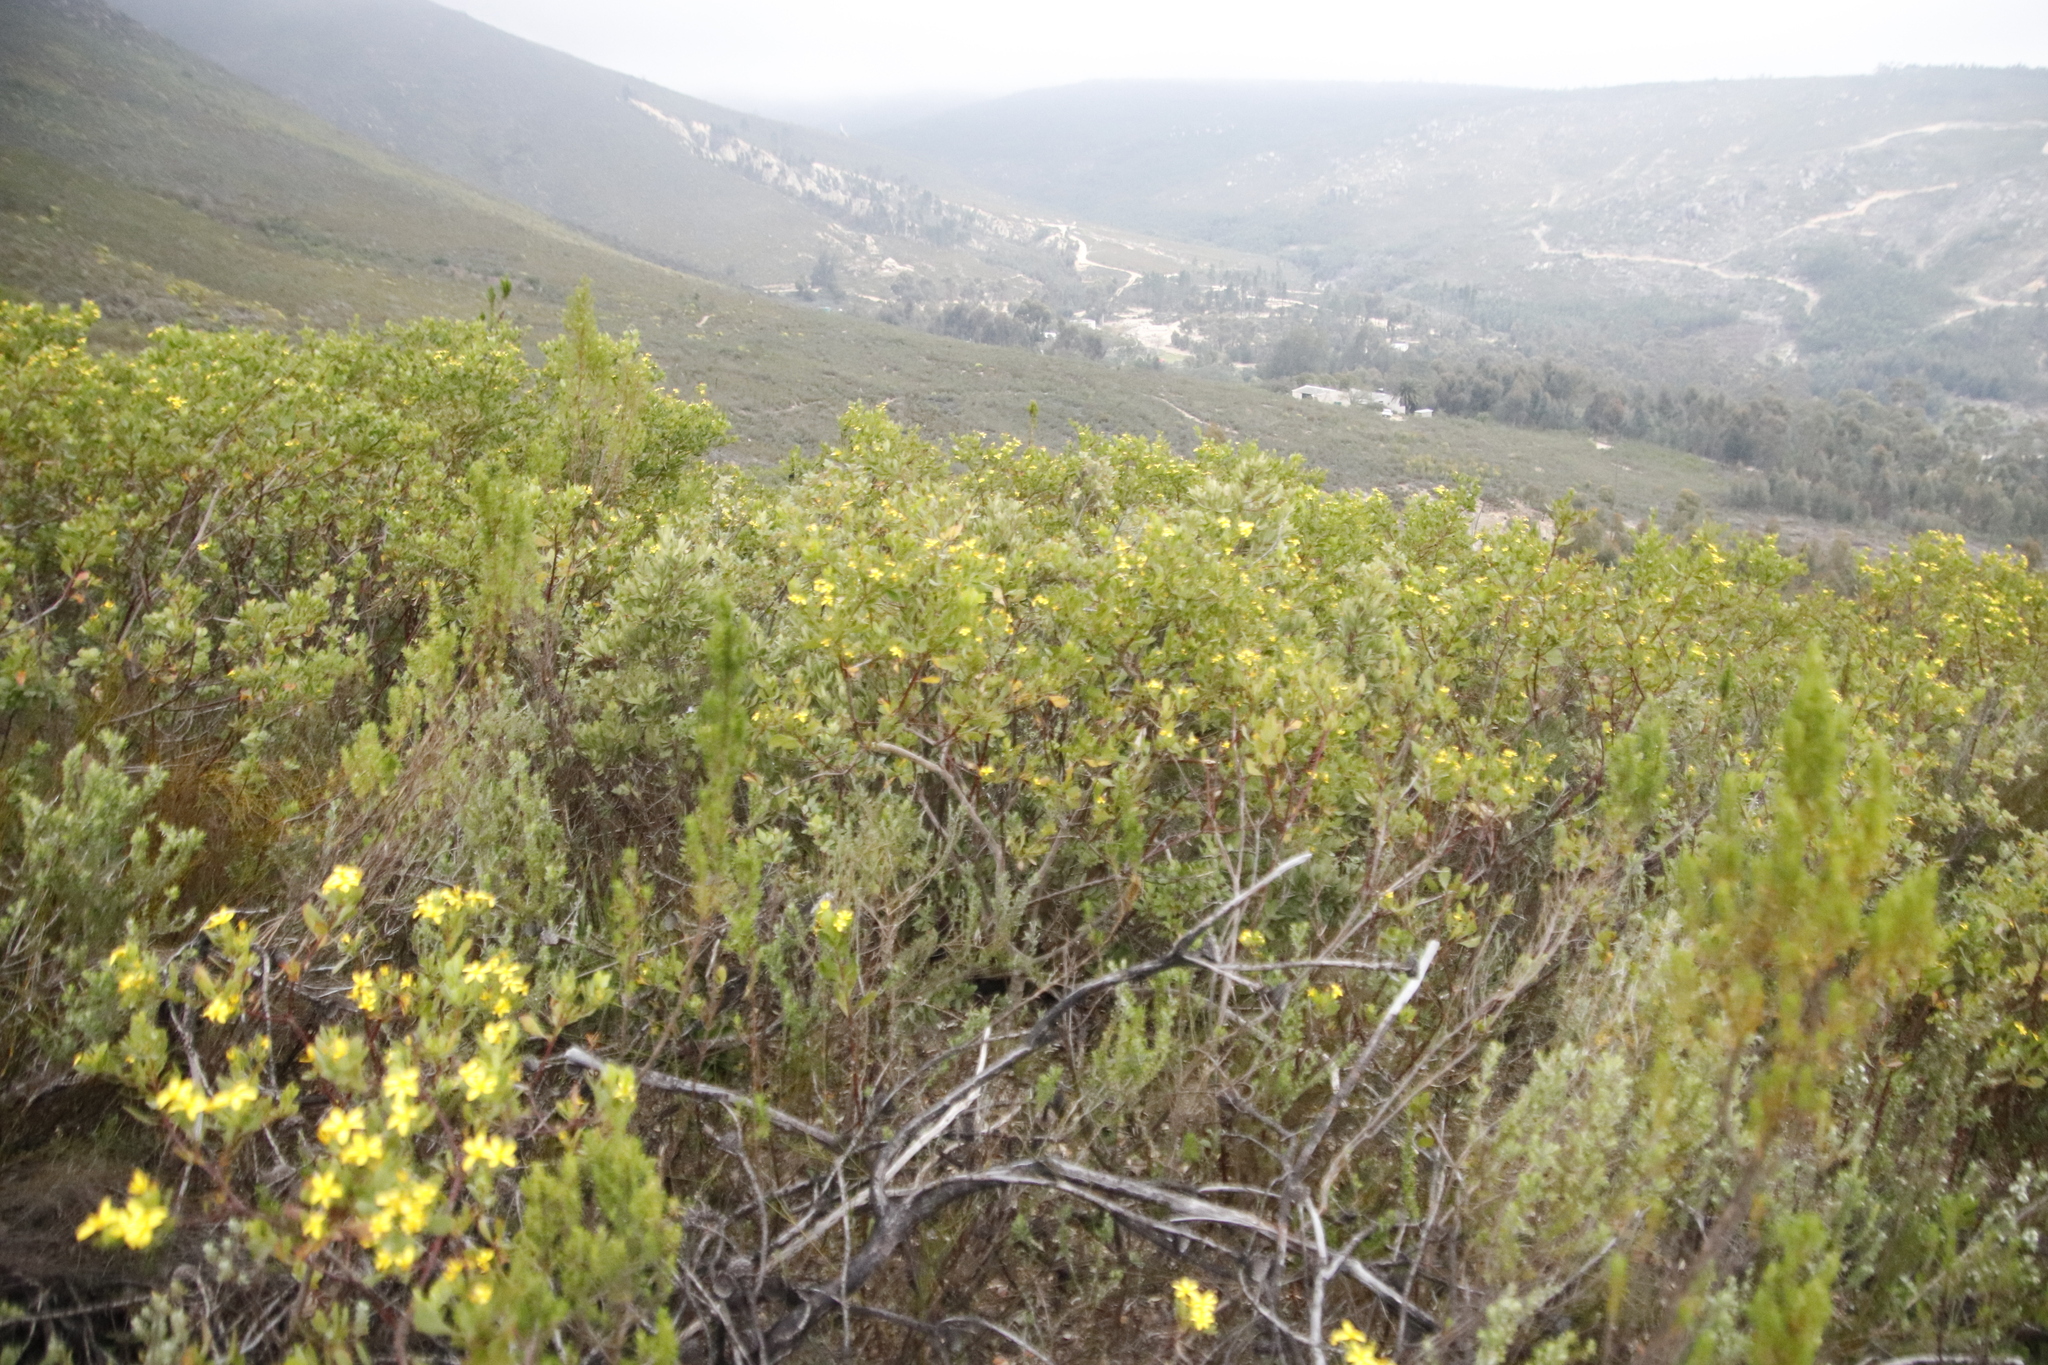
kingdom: Plantae
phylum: Tracheophyta
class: Magnoliopsida
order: Asterales
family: Asteraceae
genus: Osteospermum
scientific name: Osteospermum moniliferum
